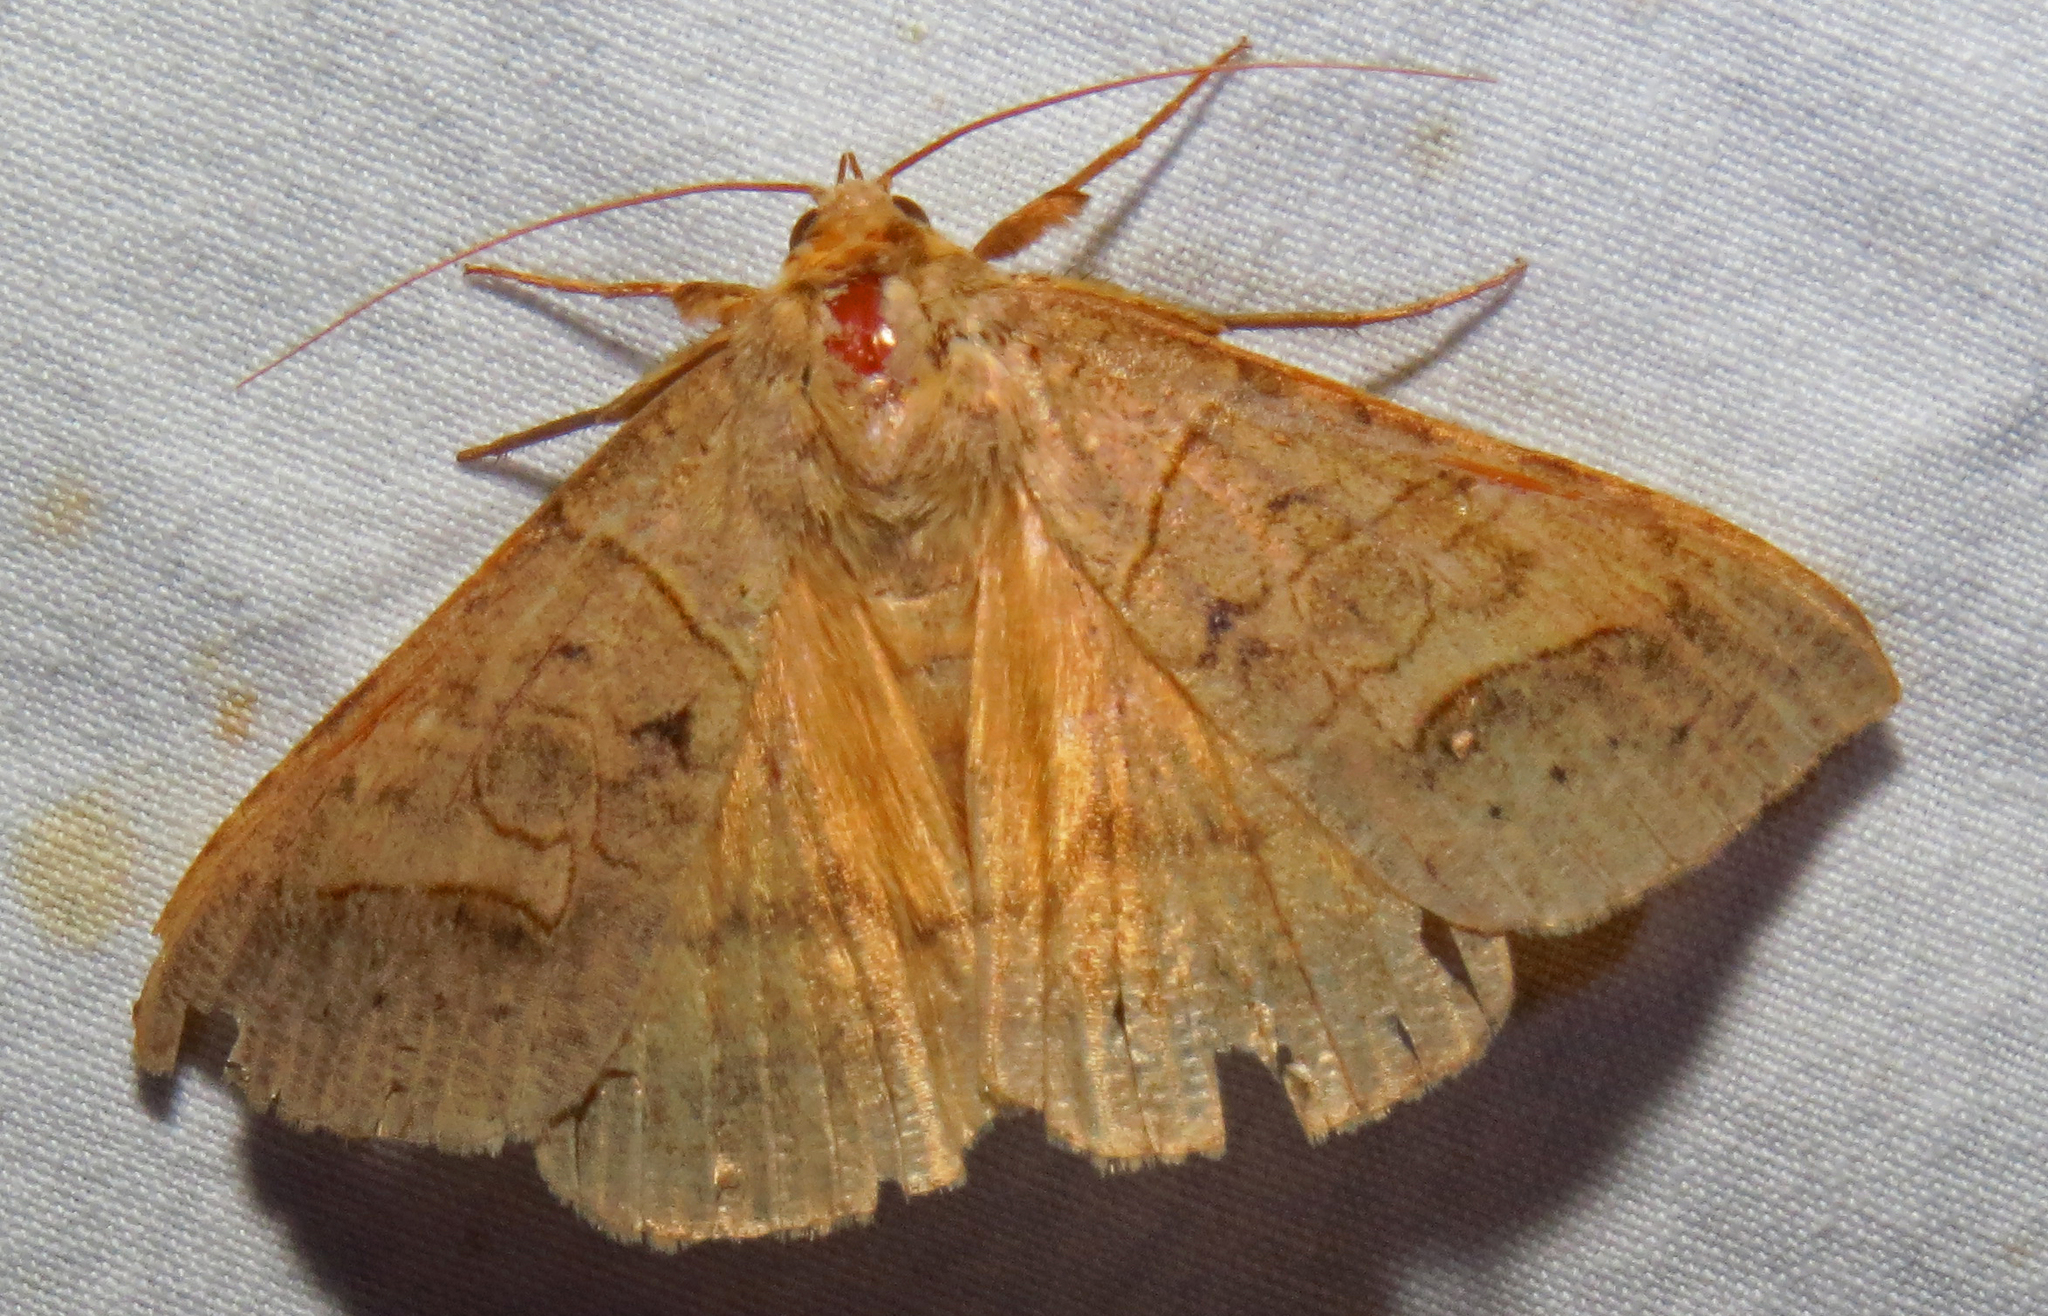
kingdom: Animalia
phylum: Arthropoda
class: Insecta
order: Lepidoptera
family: Erebidae
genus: Mocis
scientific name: Mocis marcida
